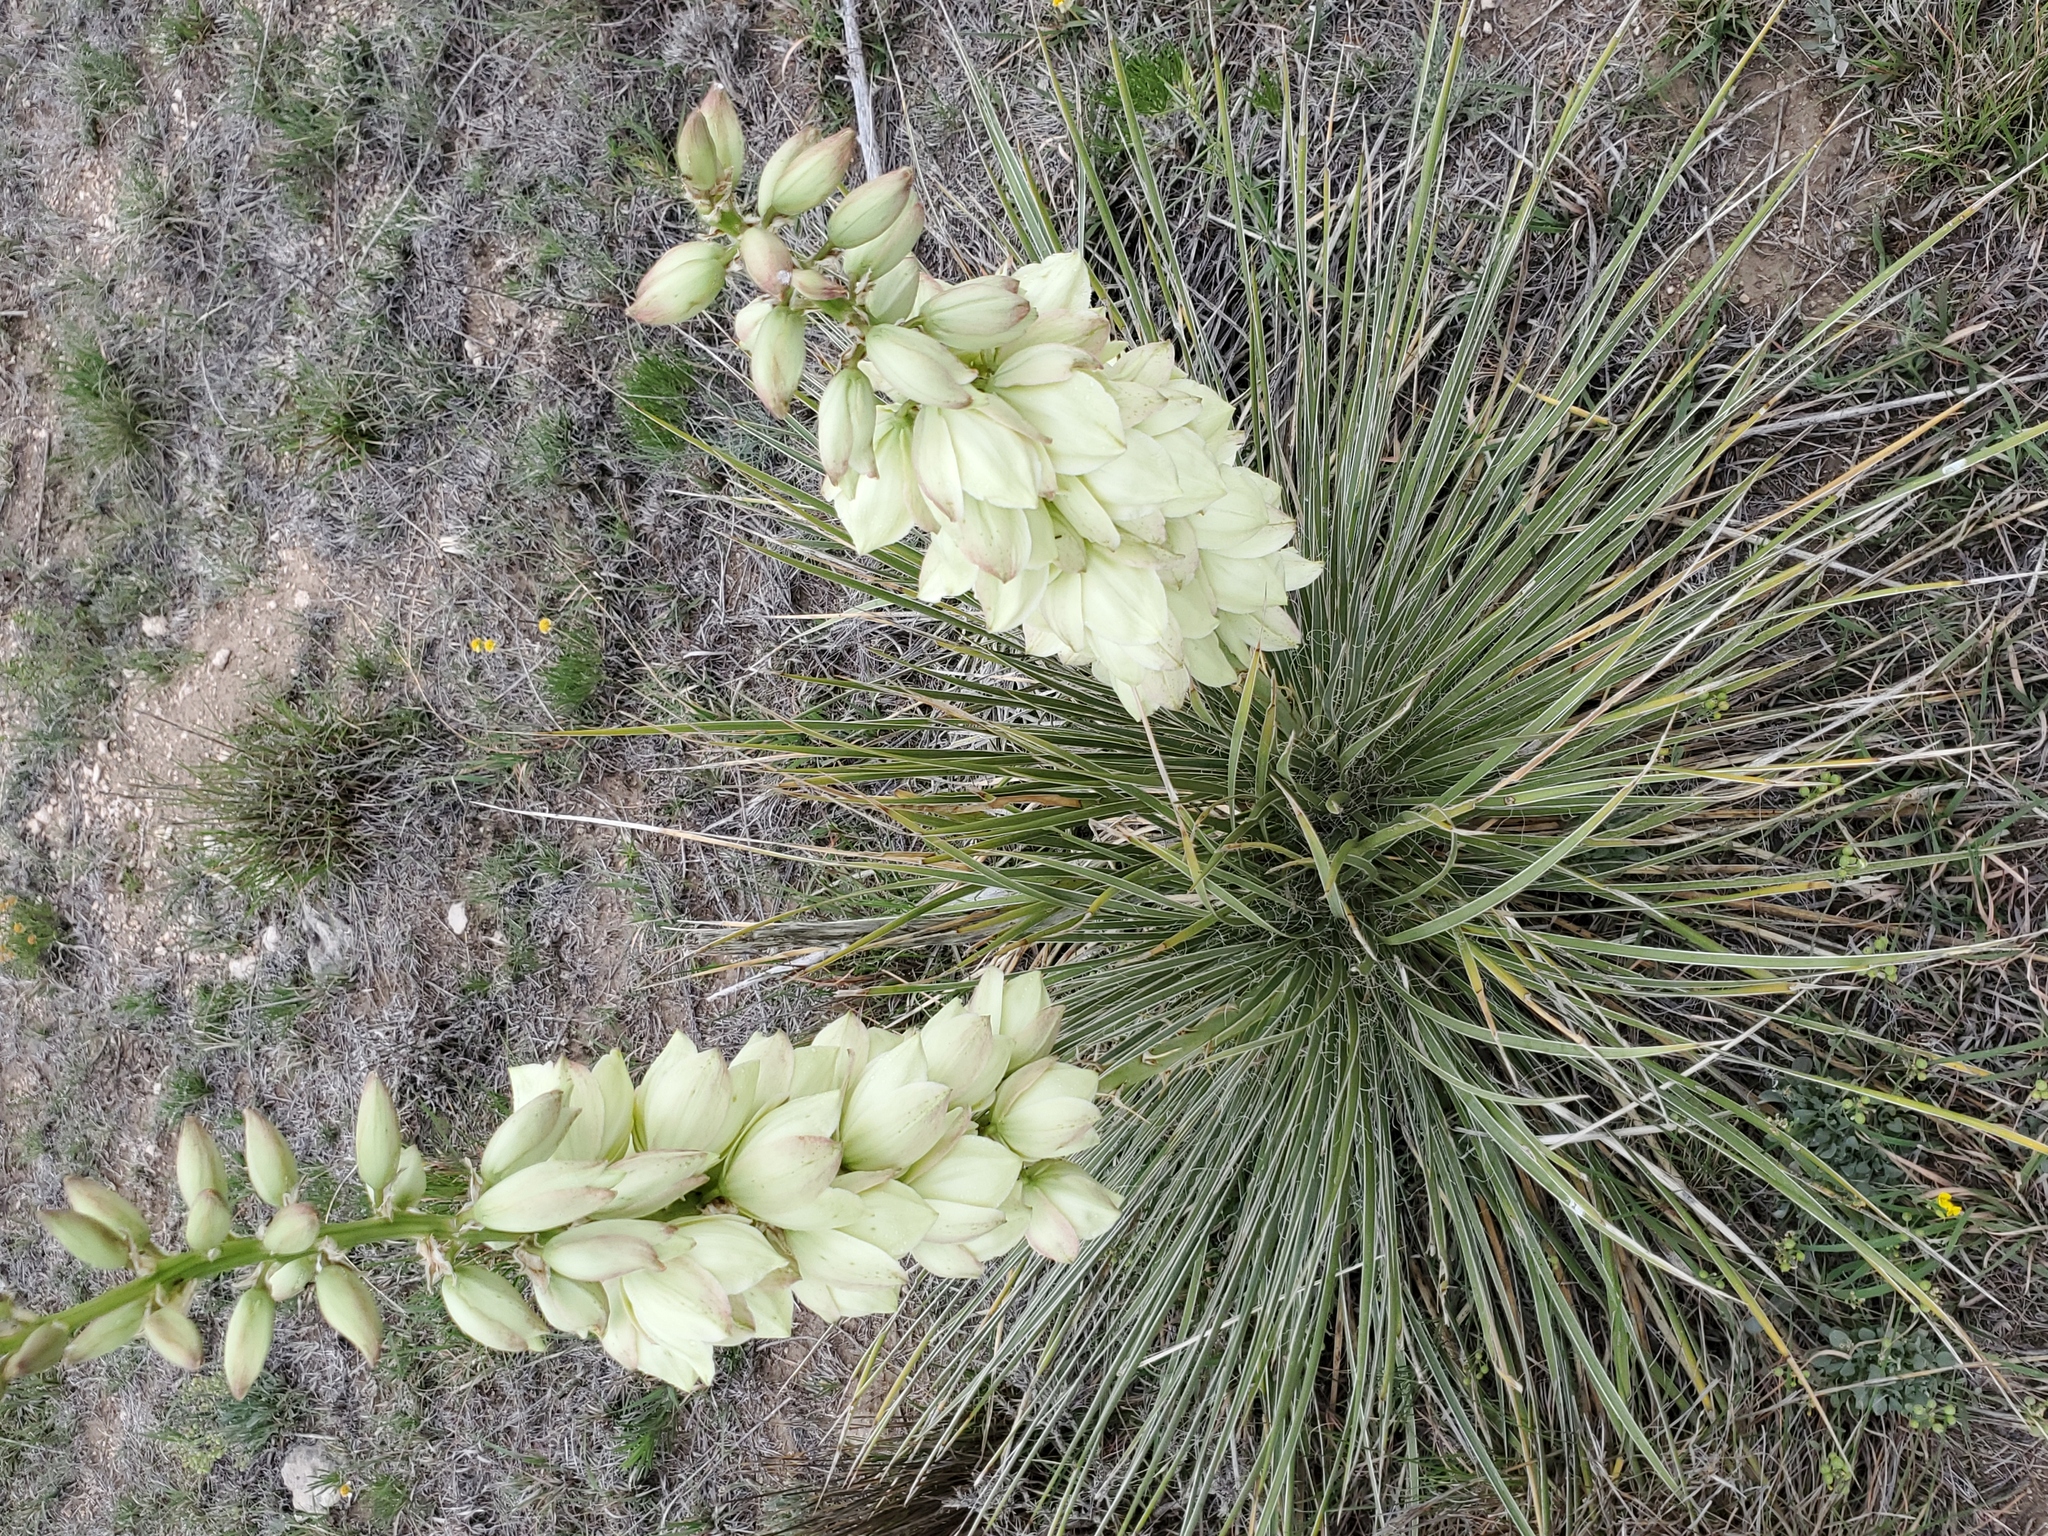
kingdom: Plantae
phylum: Tracheophyta
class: Liliopsida
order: Asparagales
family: Asparagaceae
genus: Yucca
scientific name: Yucca glauca
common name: Great plains yucca
